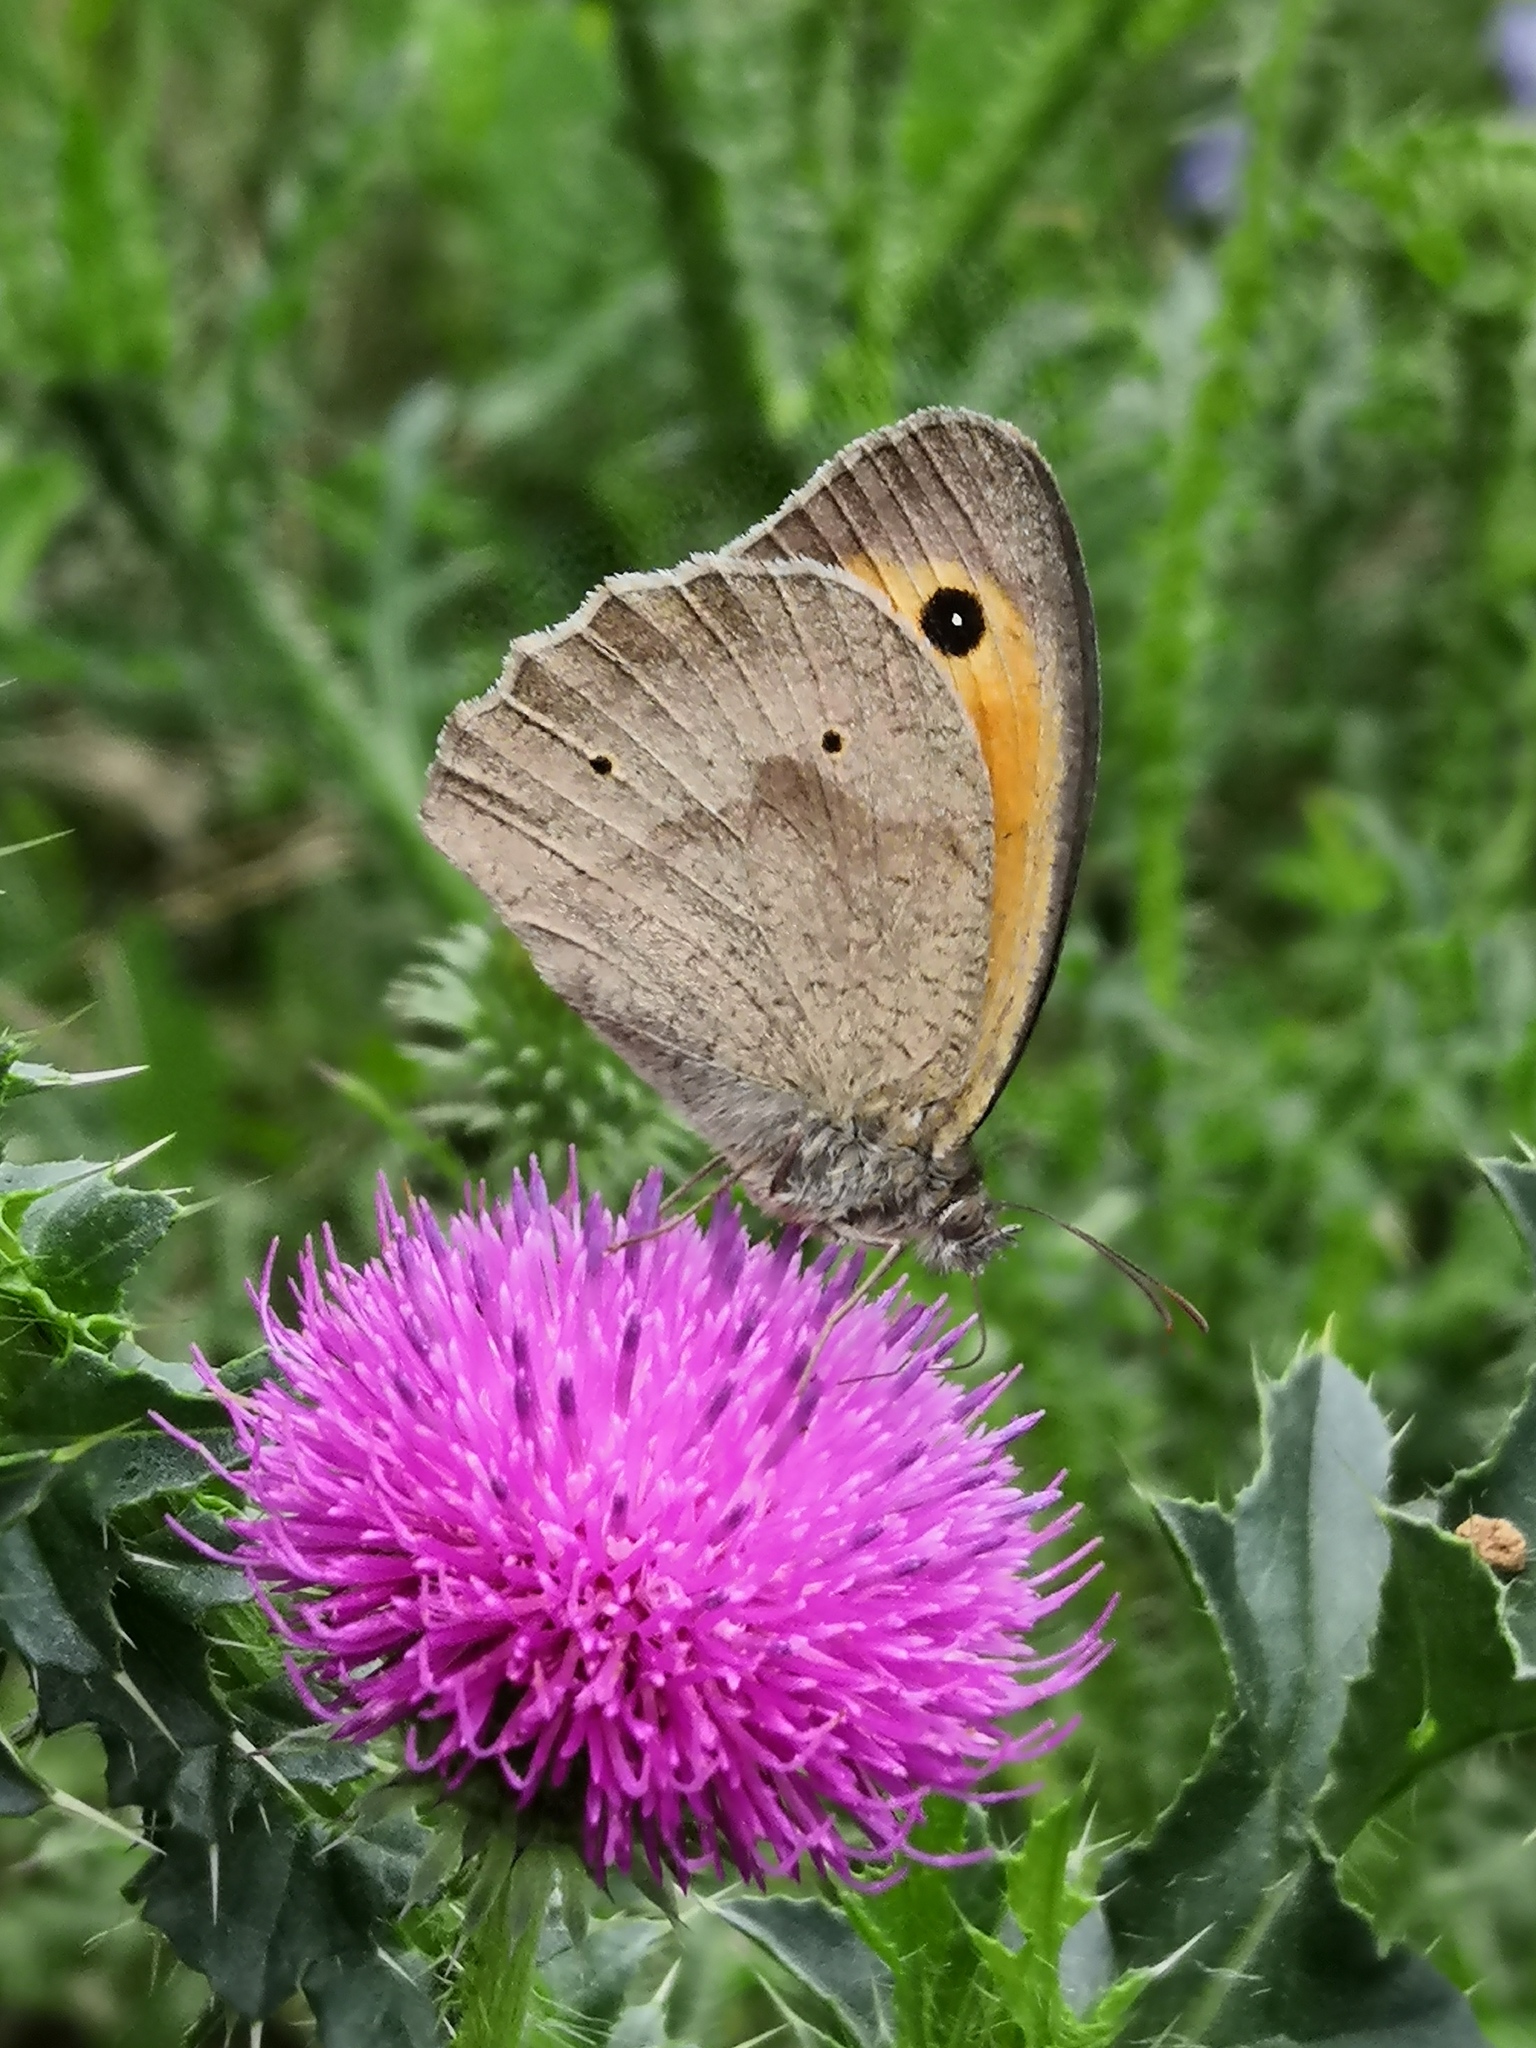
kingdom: Animalia
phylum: Arthropoda
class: Insecta
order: Lepidoptera
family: Nymphalidae
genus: Maniola
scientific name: Maniola jurtina
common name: Meadow brown
